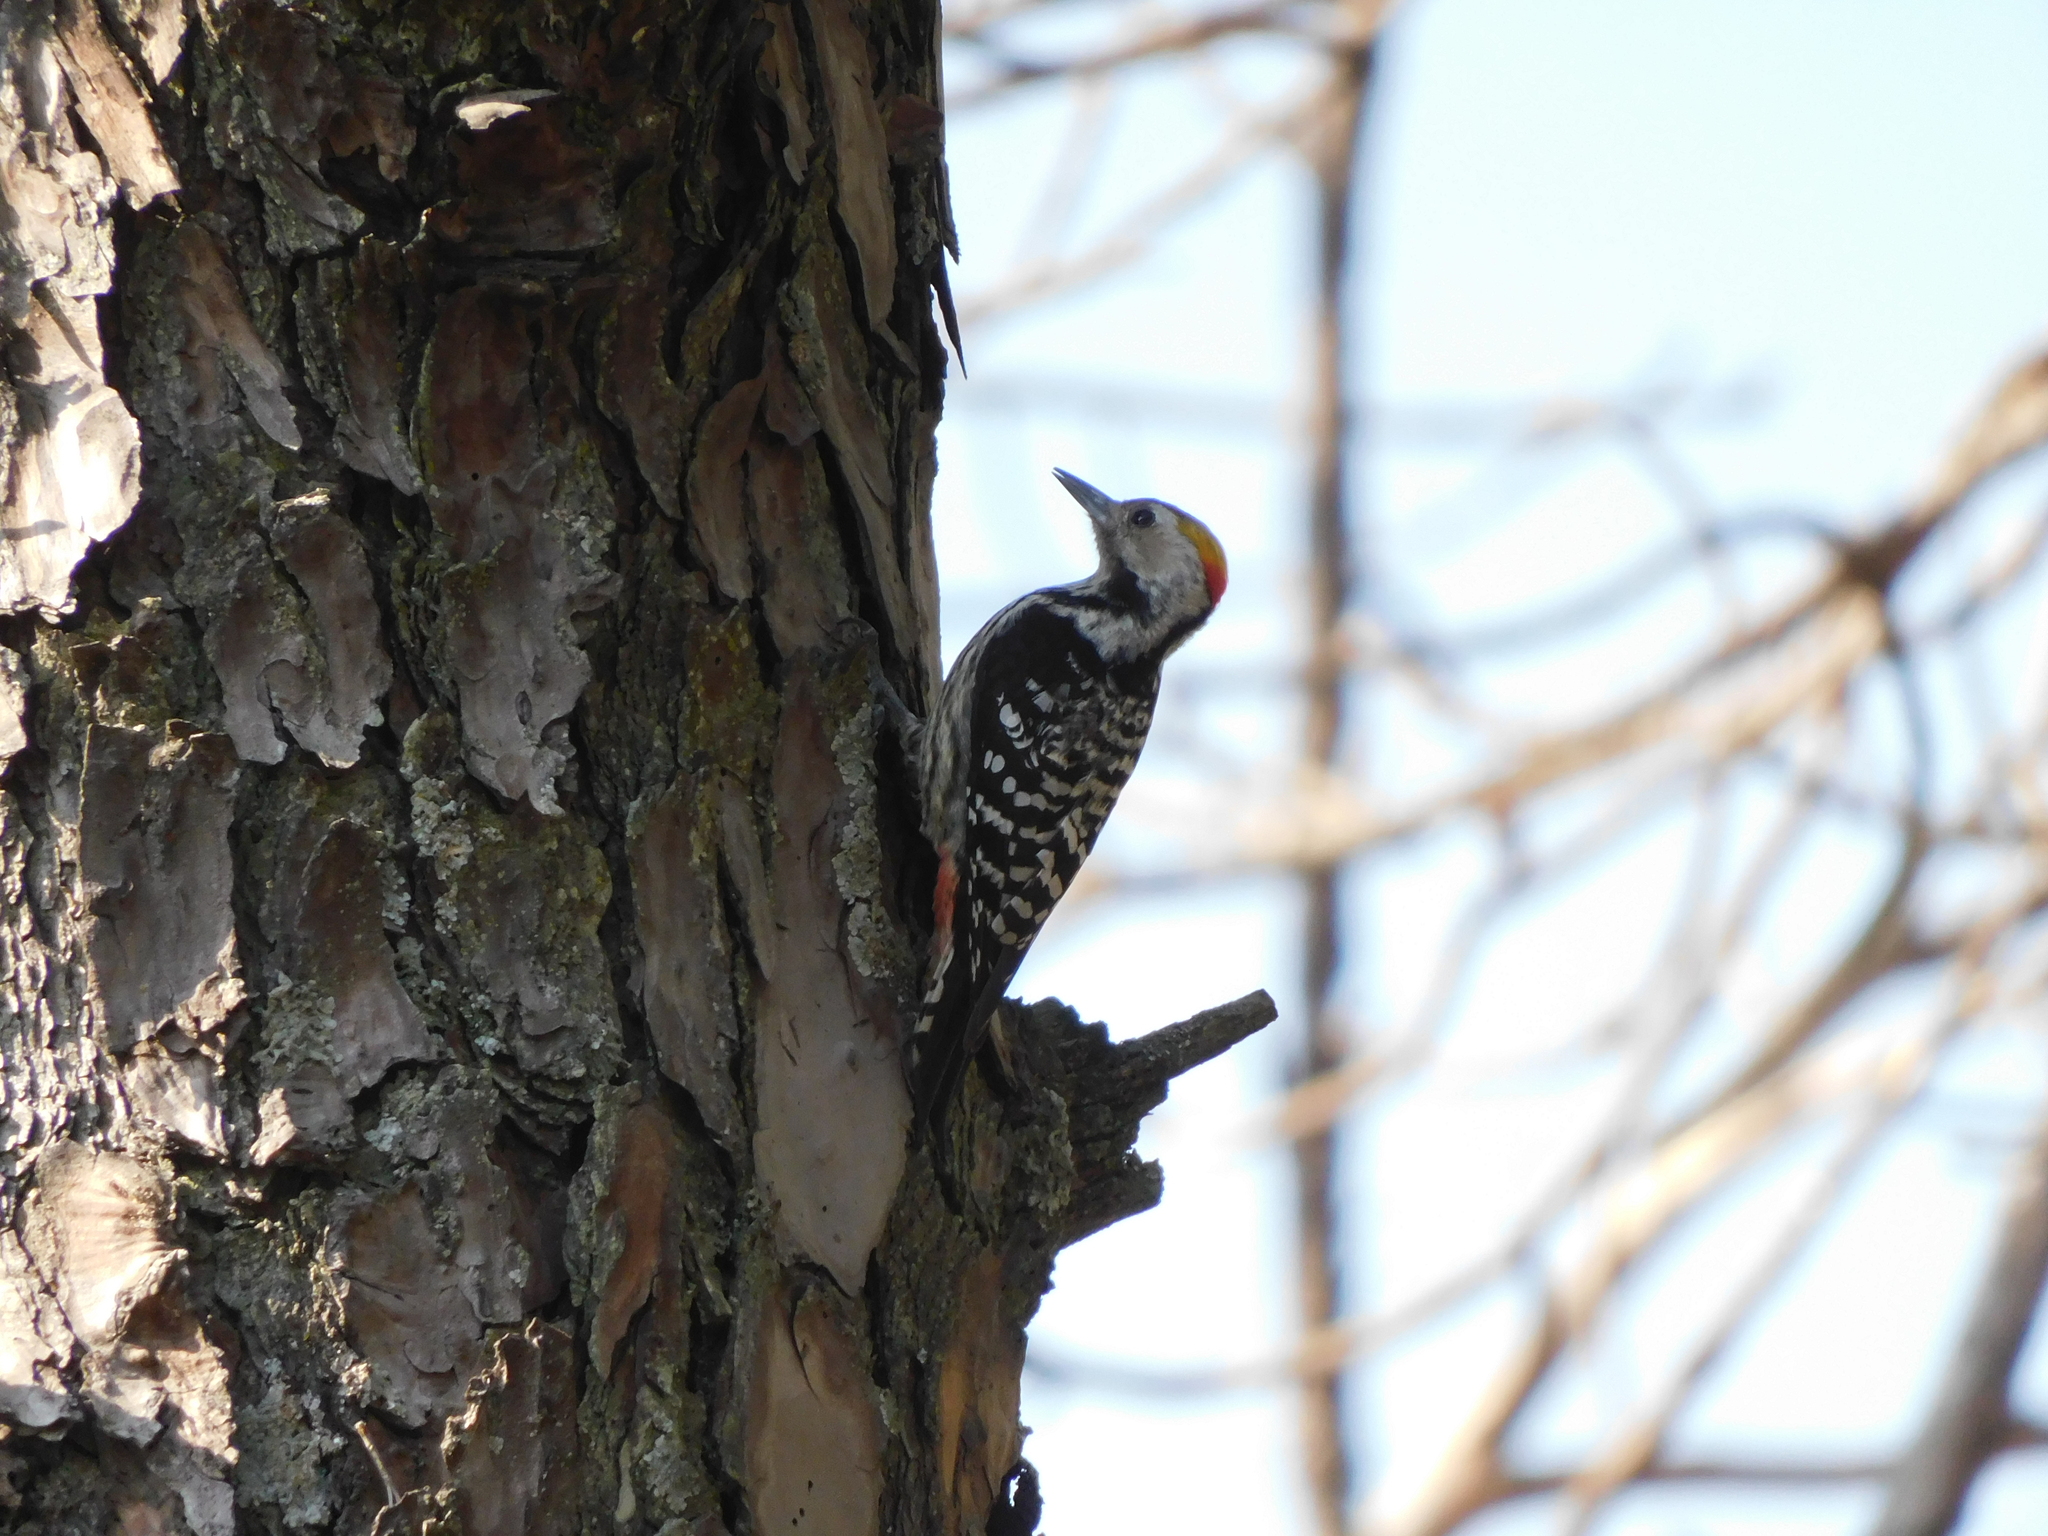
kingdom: Animalia
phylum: Chordata
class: Aves
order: Piciformes
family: Picidae
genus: Dendrocoptes
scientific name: Dendrocoptes auriceps
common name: Brown-fronted woodpecker
